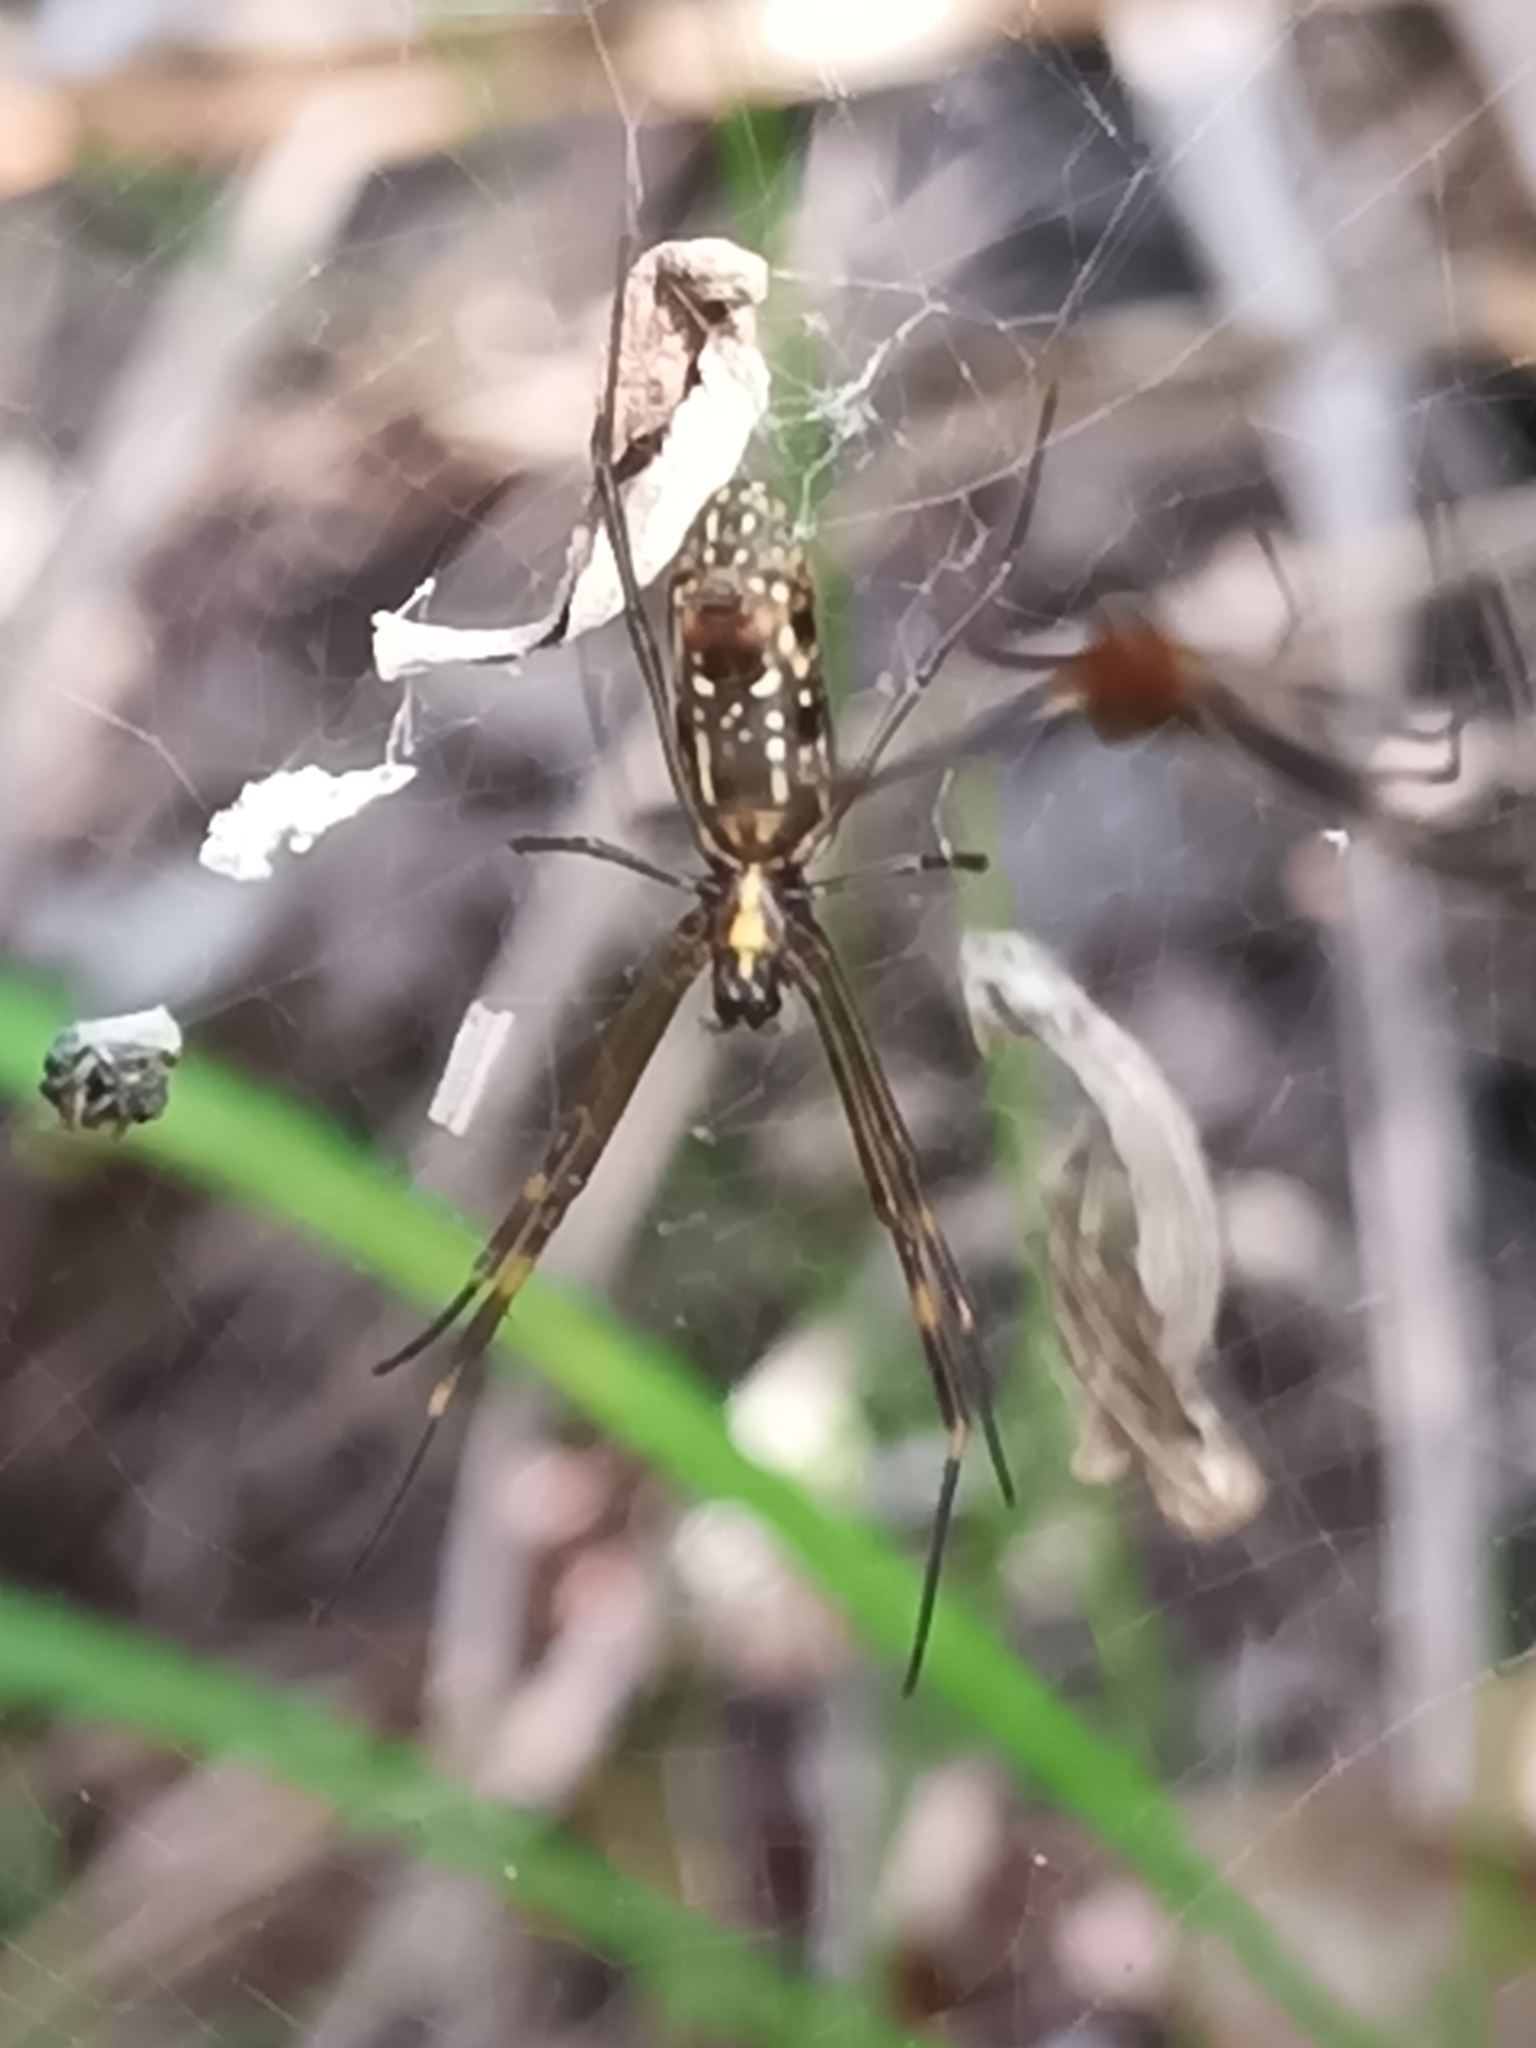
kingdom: Animalia
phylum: Arthropoda
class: Arachnida
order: Araneae
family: Araneidae
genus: Nephila
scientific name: Nephila cornuta
